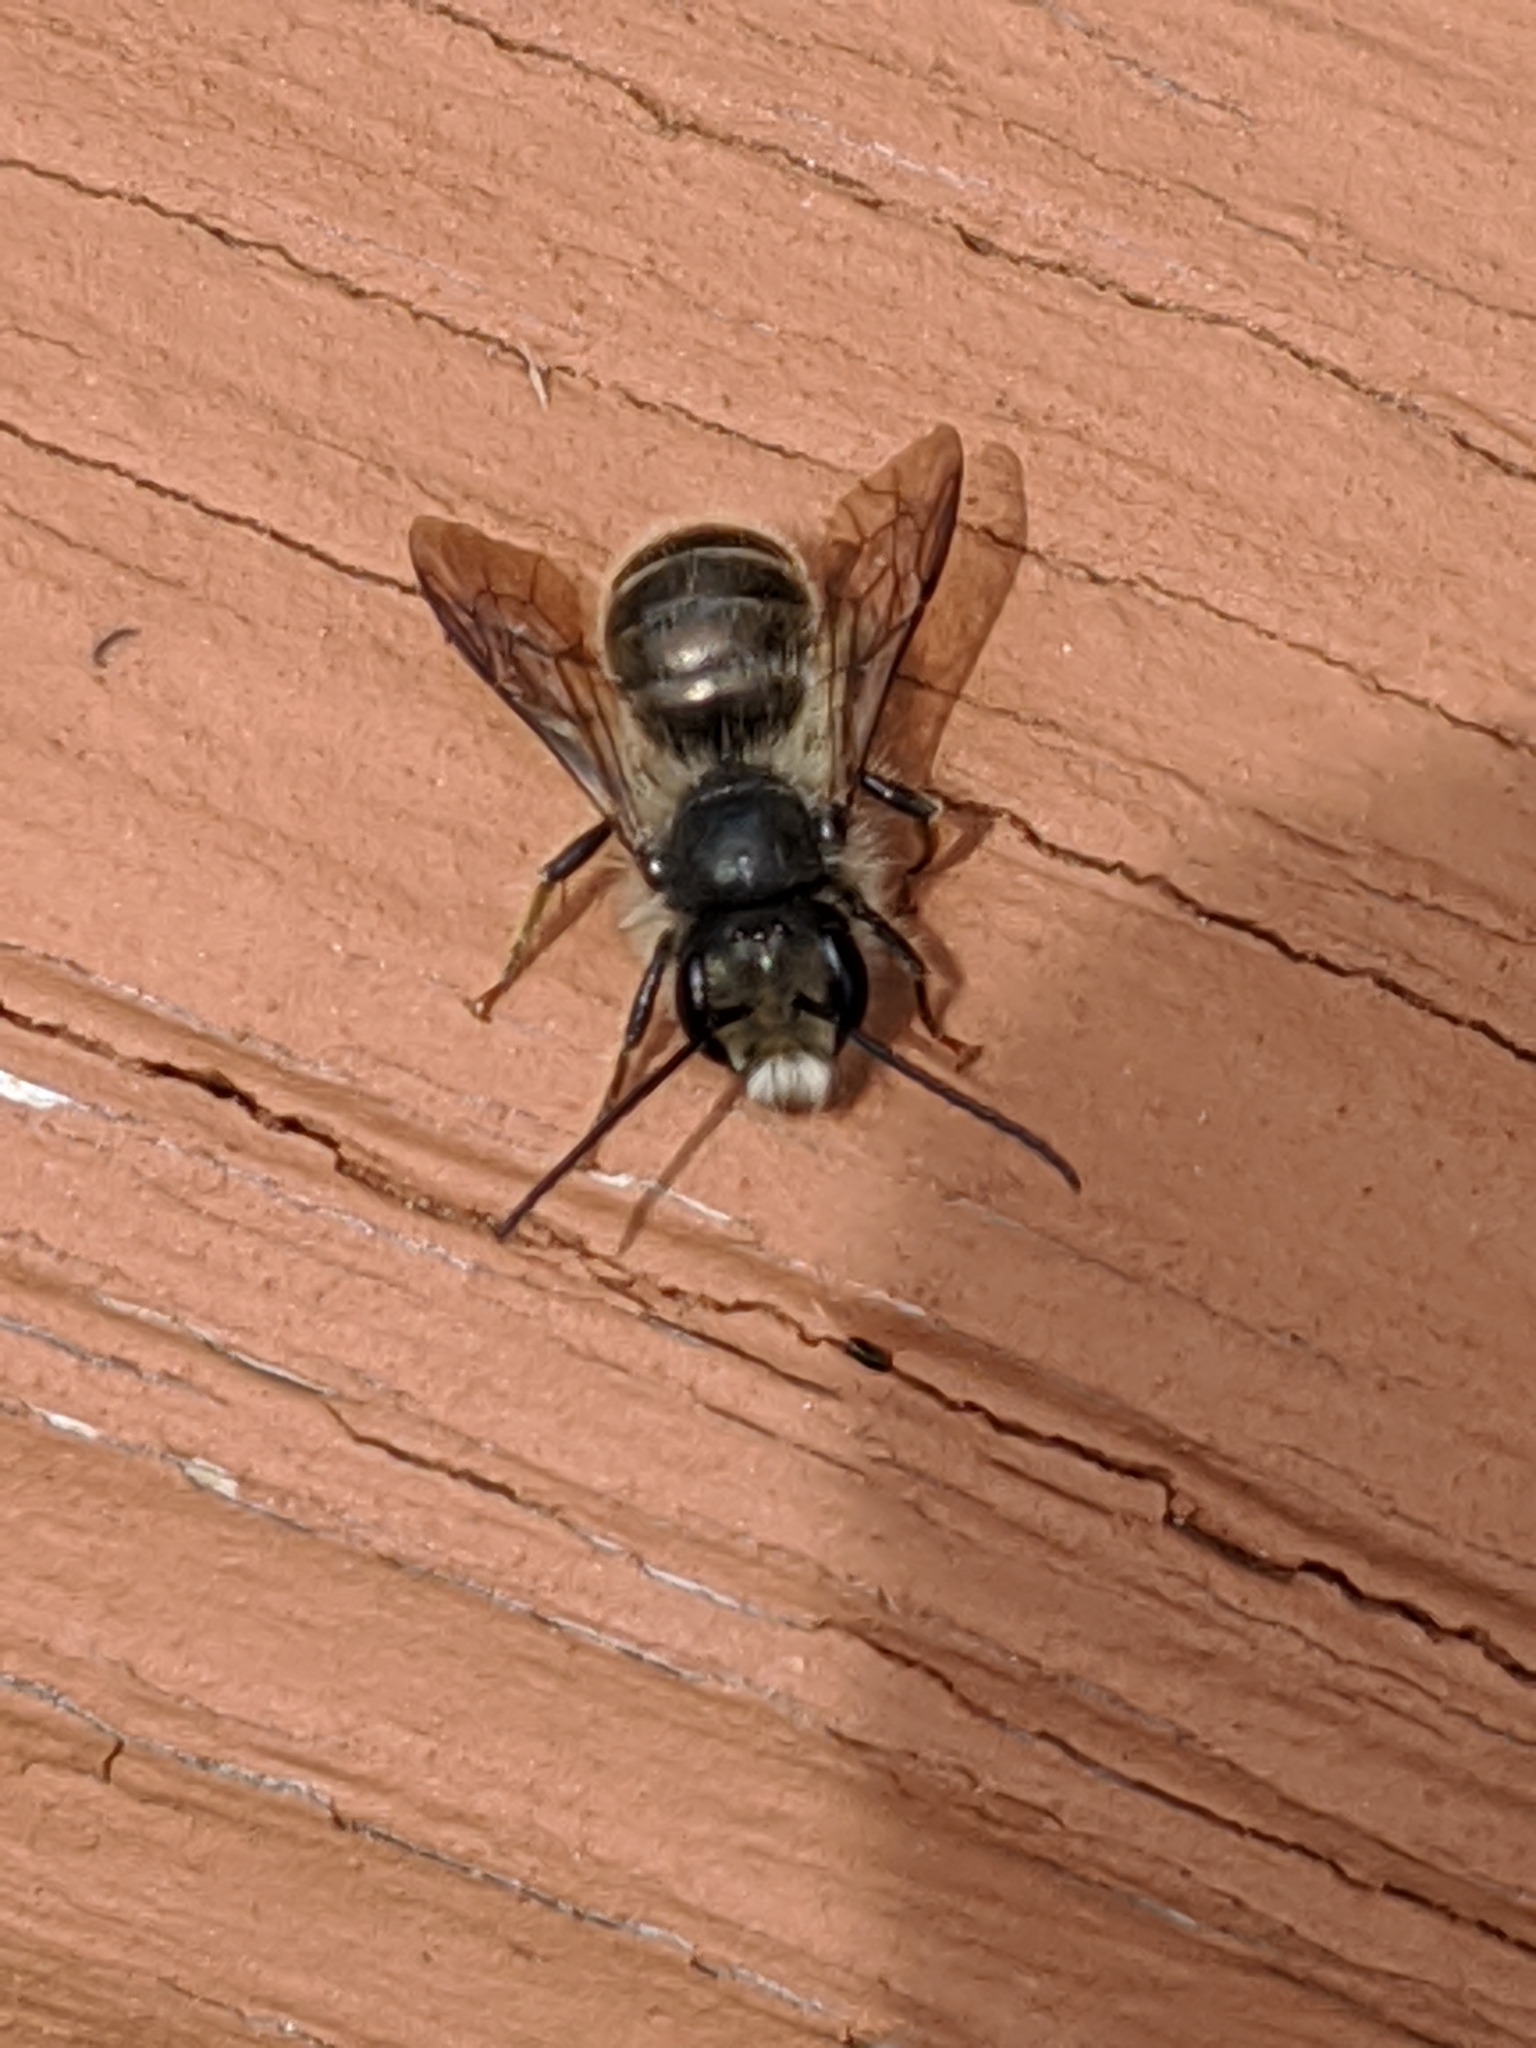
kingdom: Animalia
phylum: Arthropoda
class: Insecta
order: Hymenoptera
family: Megachilidae
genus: Osmia
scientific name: Osmia cornifrons
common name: Horn-faced bee
